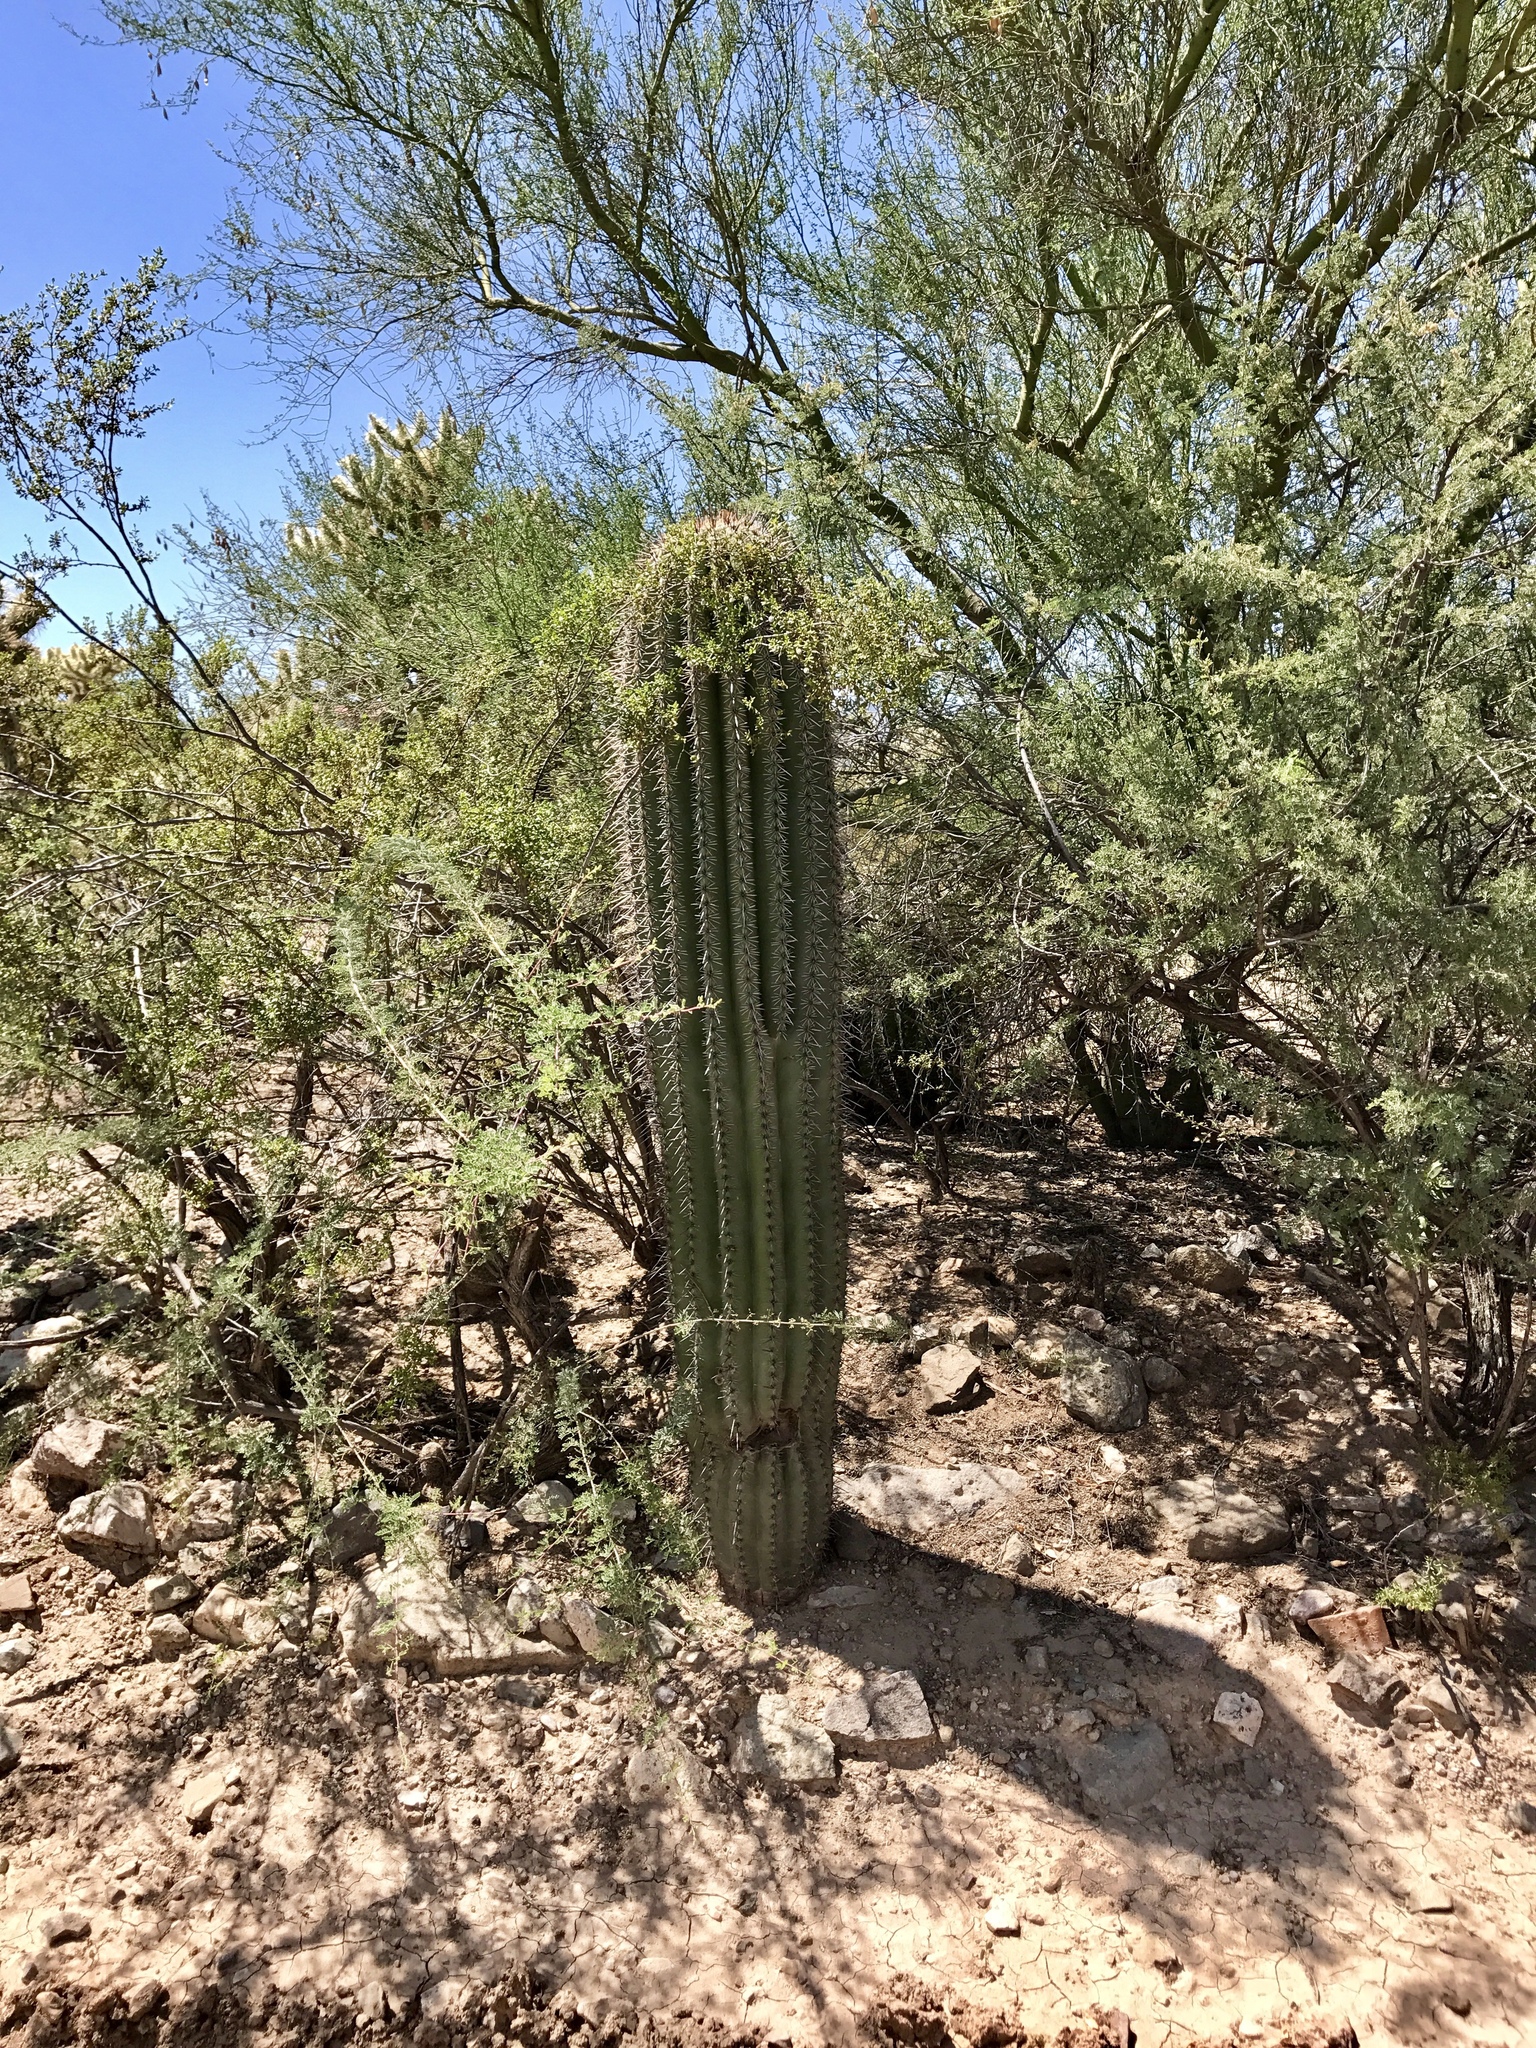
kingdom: Plantae
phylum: Tracheophyta
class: Magnoliopsida
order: Caryophyllales
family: Cactaceae
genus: Carnegiea
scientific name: Carnegiea gigantea
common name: Saguaro
